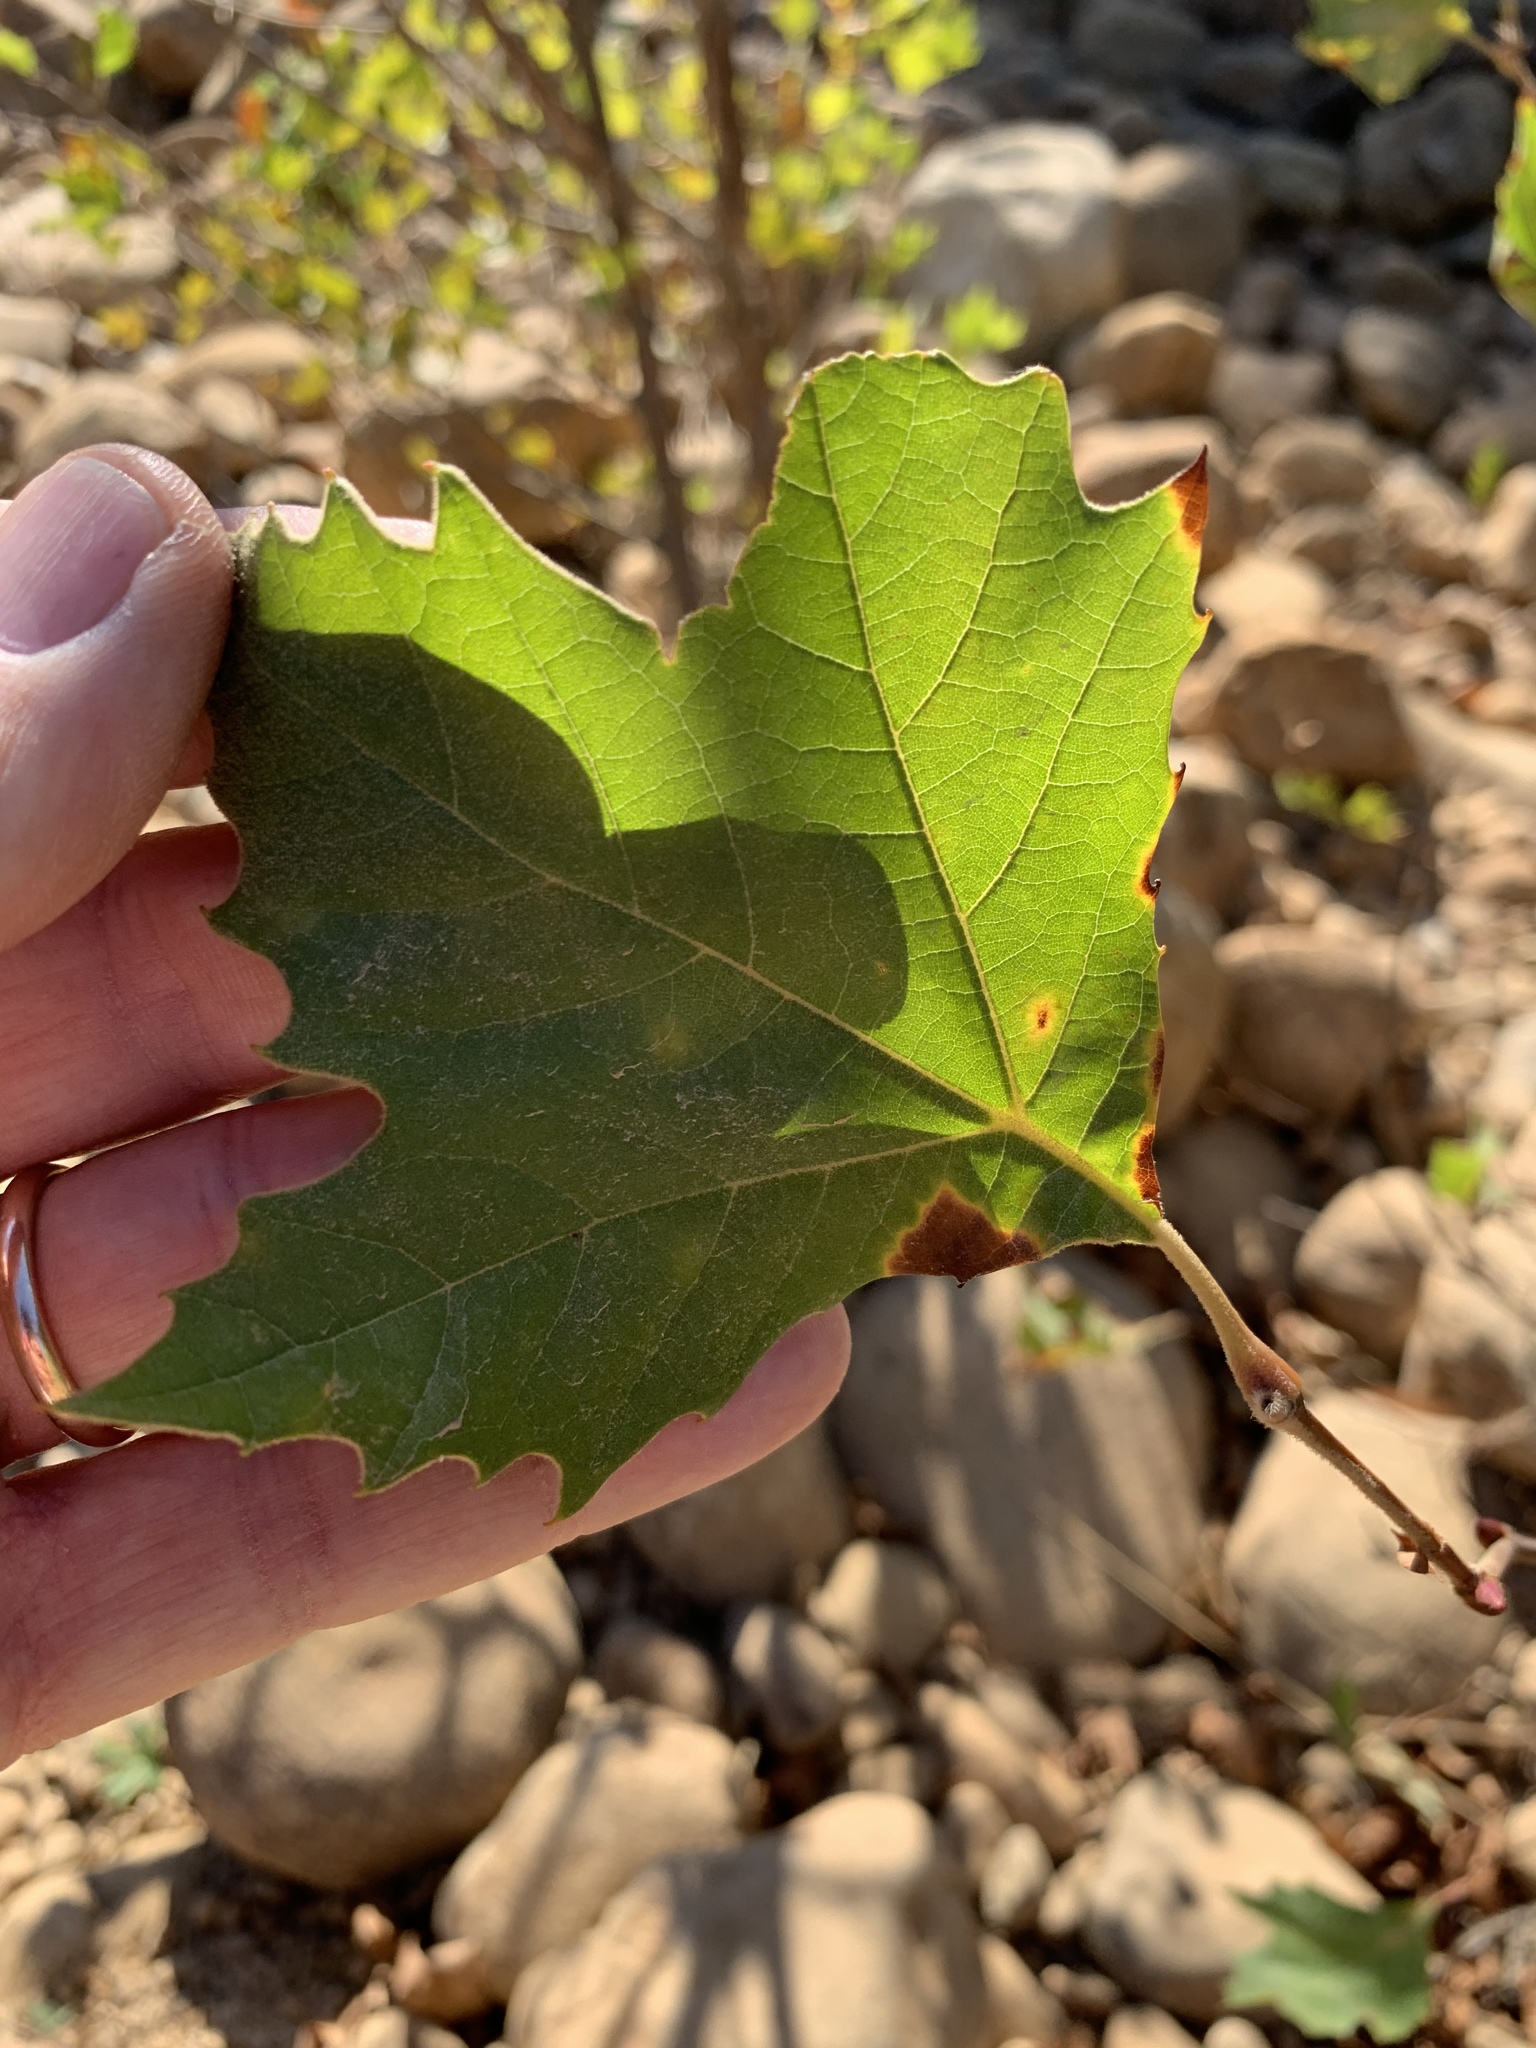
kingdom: Plantae
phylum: Tracheophyta
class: Magnoliopsida
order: Proteales
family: Platanaceae
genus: Platanus
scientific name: Platanus hispanica
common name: London plane
